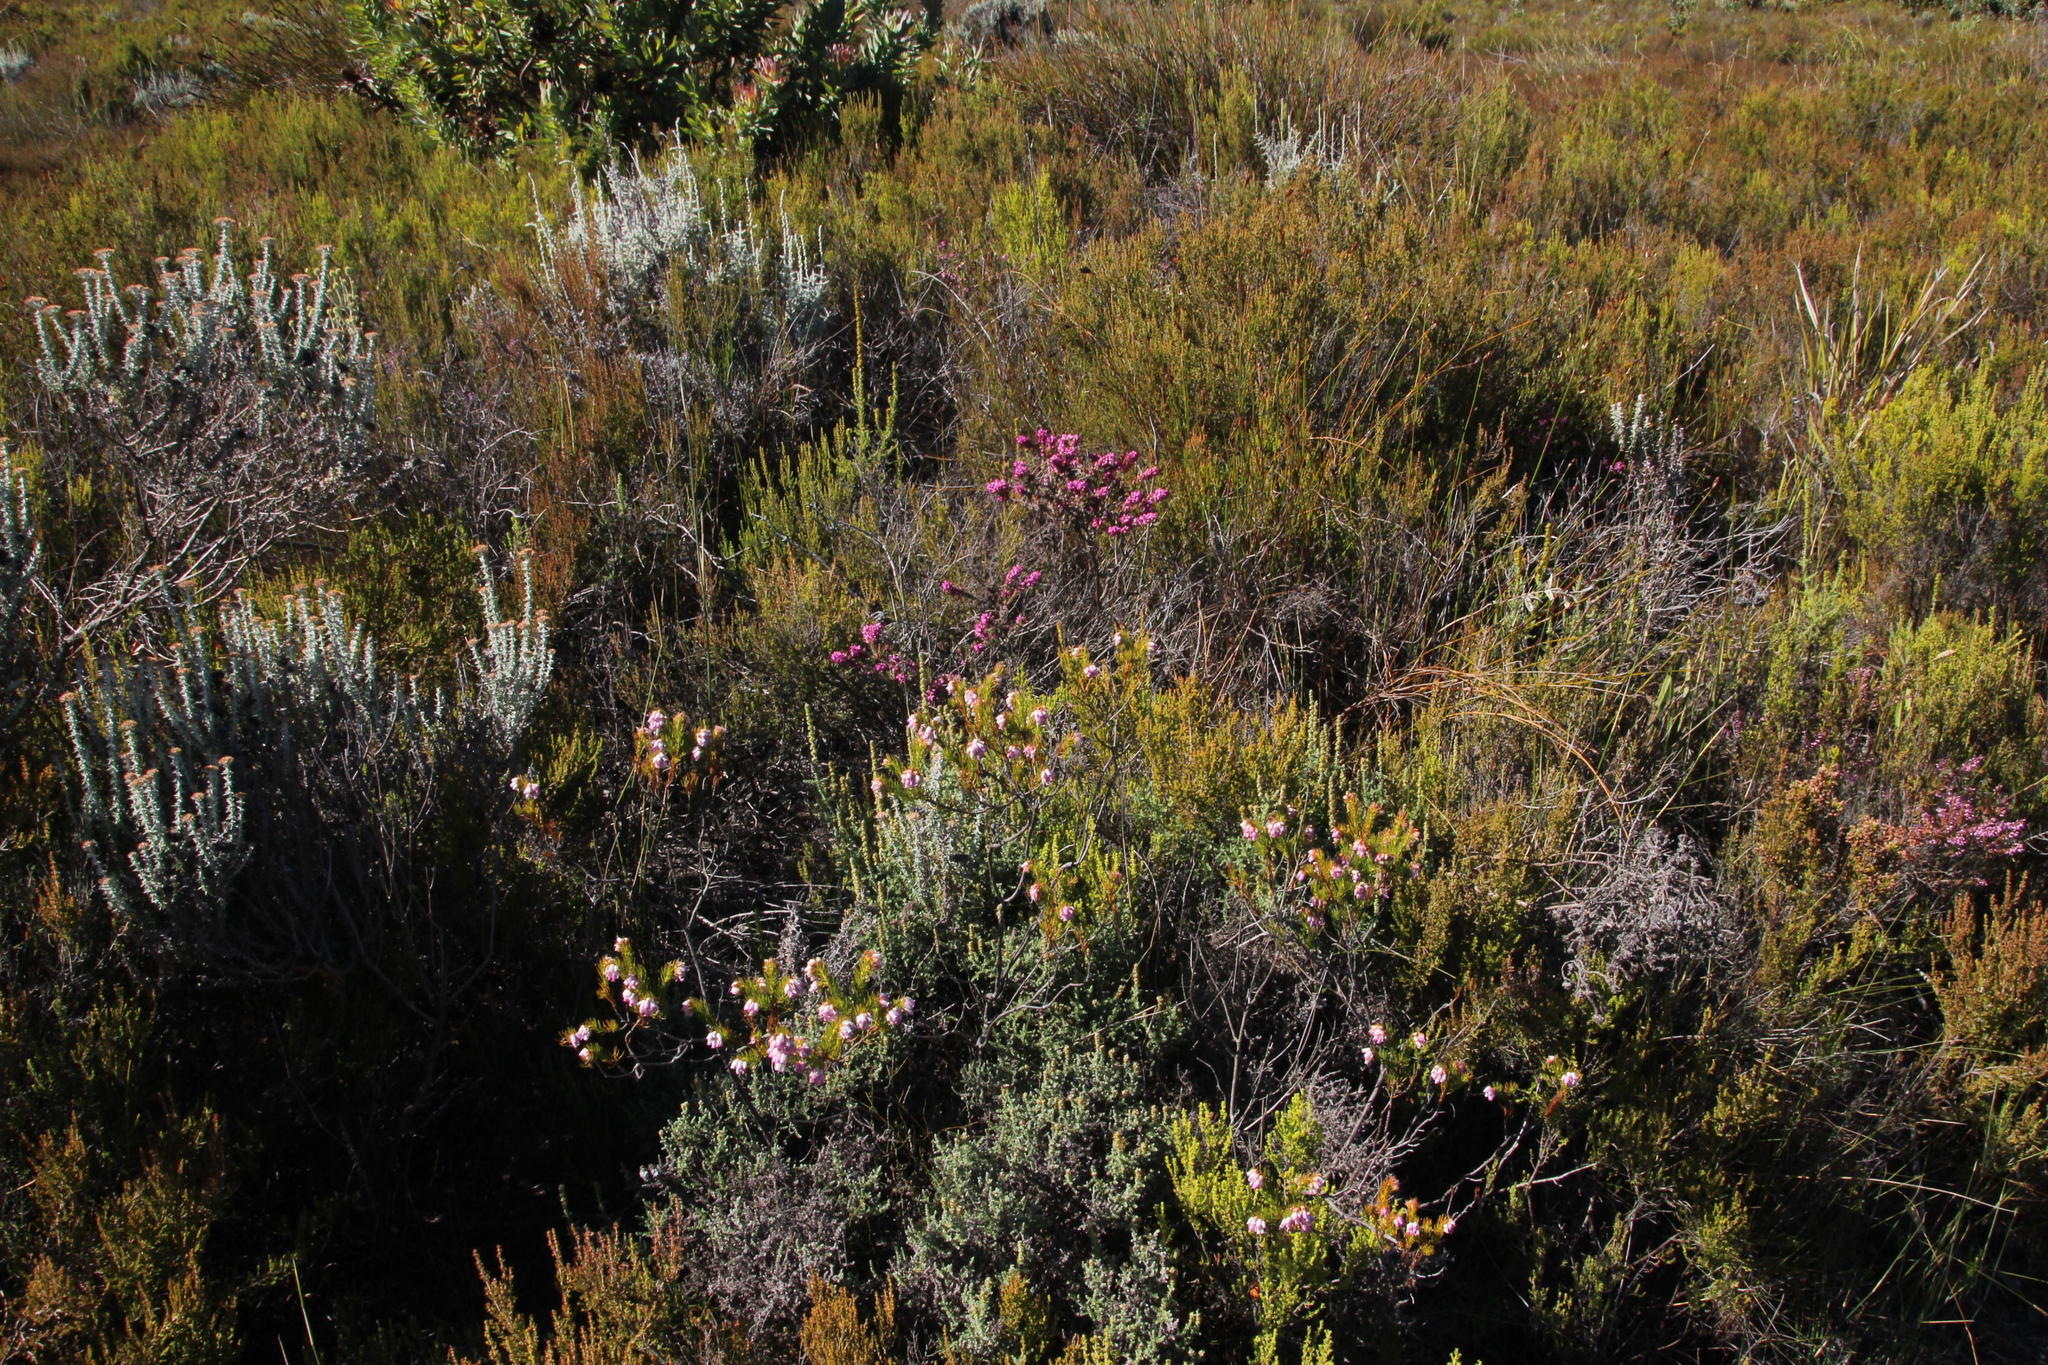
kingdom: Plantae
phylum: Tracheophyta
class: Magnoliopsida
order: Ericales
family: Ericaceae
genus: Erica
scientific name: Erica subulata
